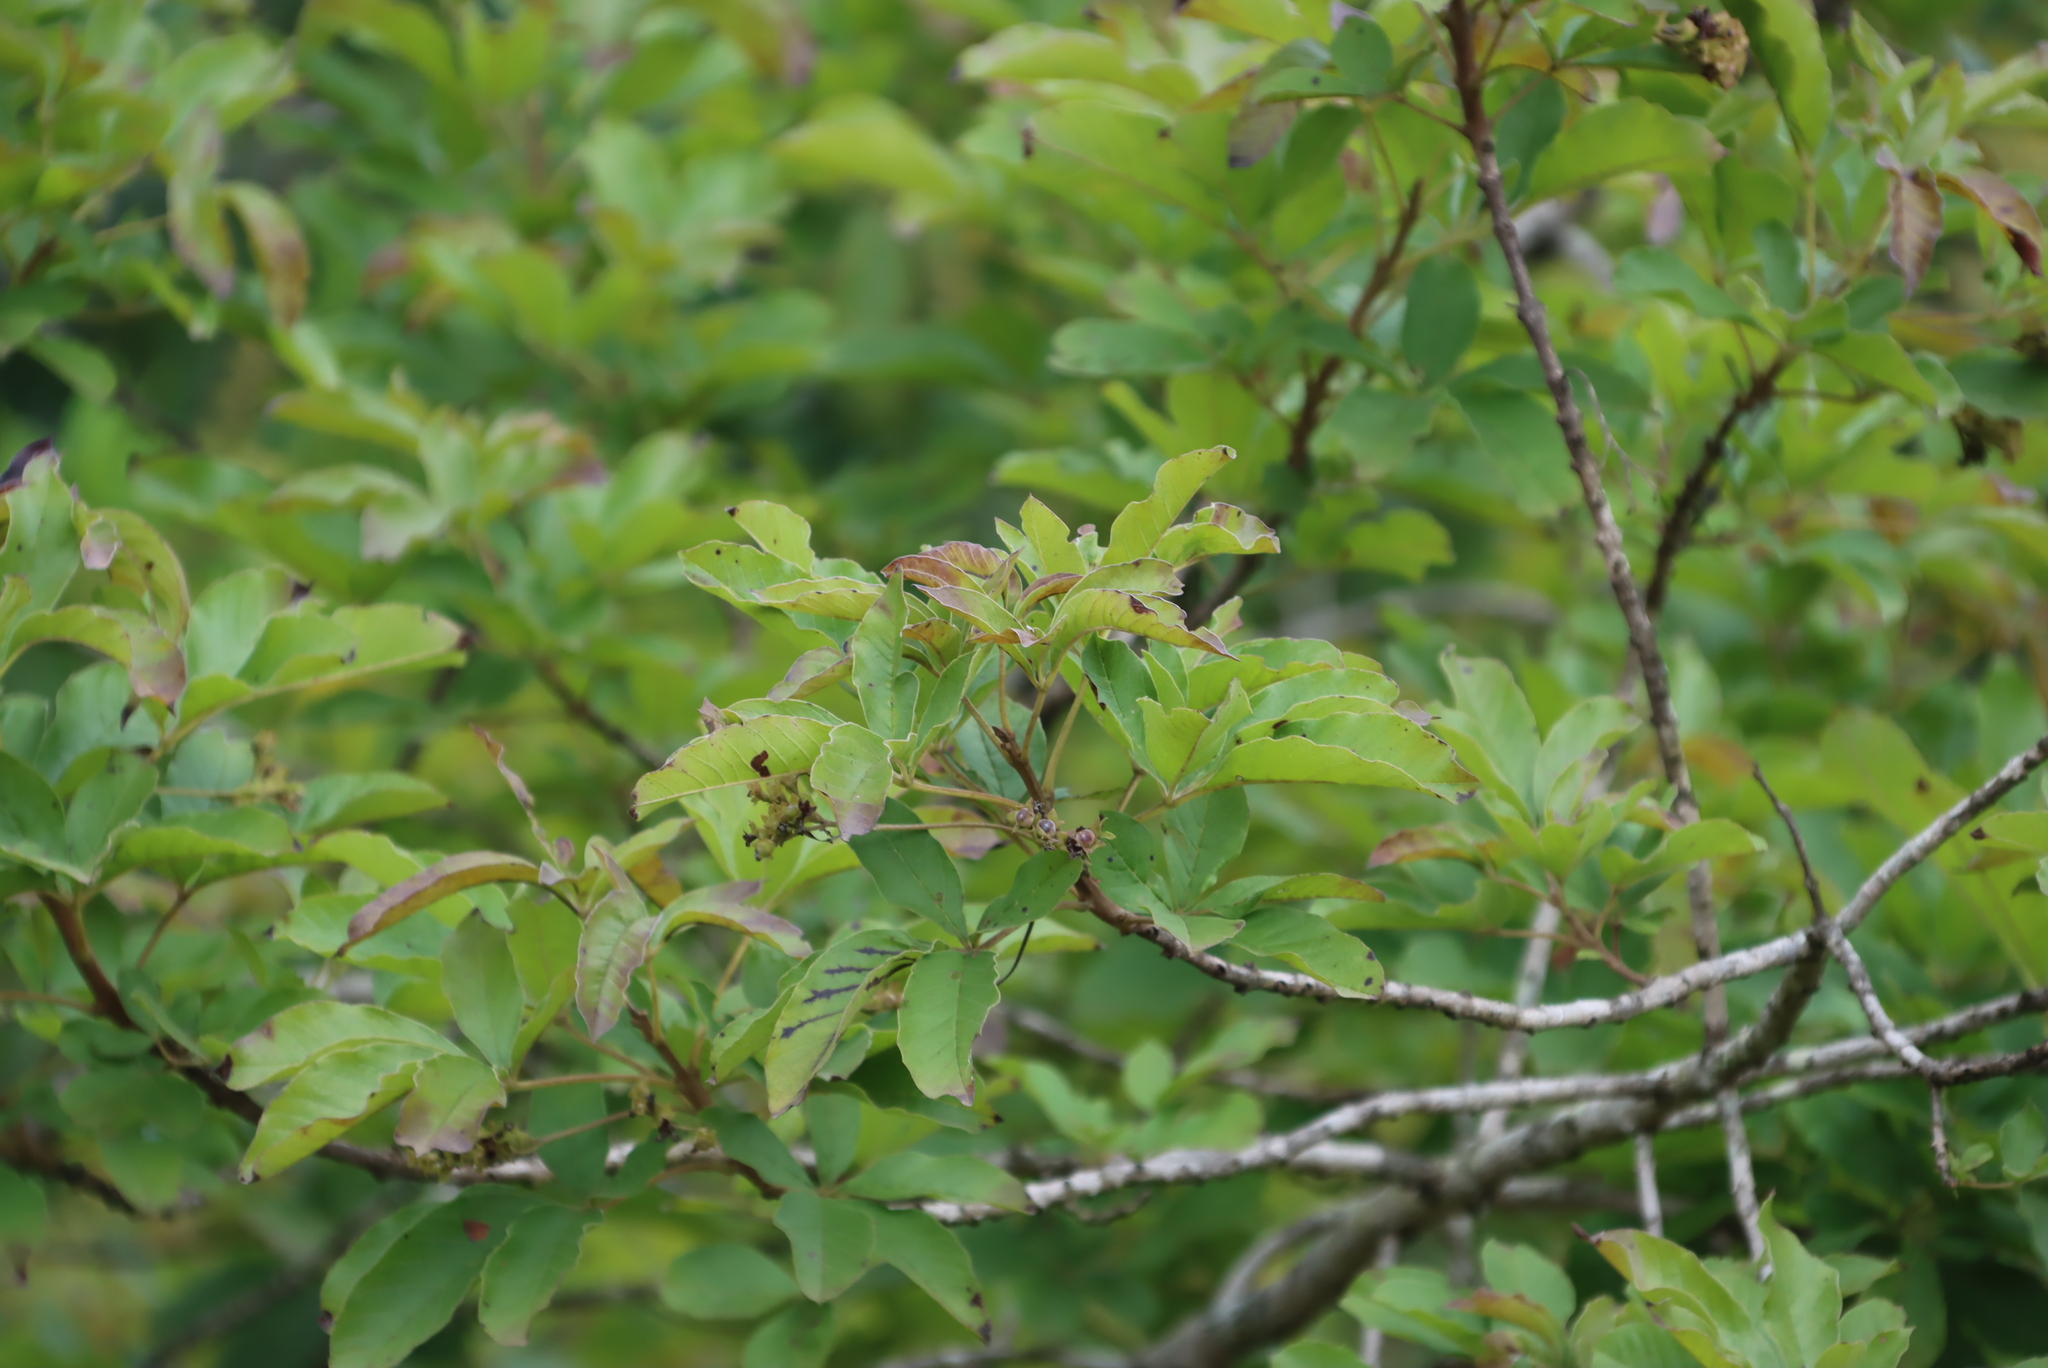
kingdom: Plantae
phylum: Tracheophyta
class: Magnoliopsida
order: Lamiales
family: Lamiaceae
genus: Vitex
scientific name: Vitex obovata
